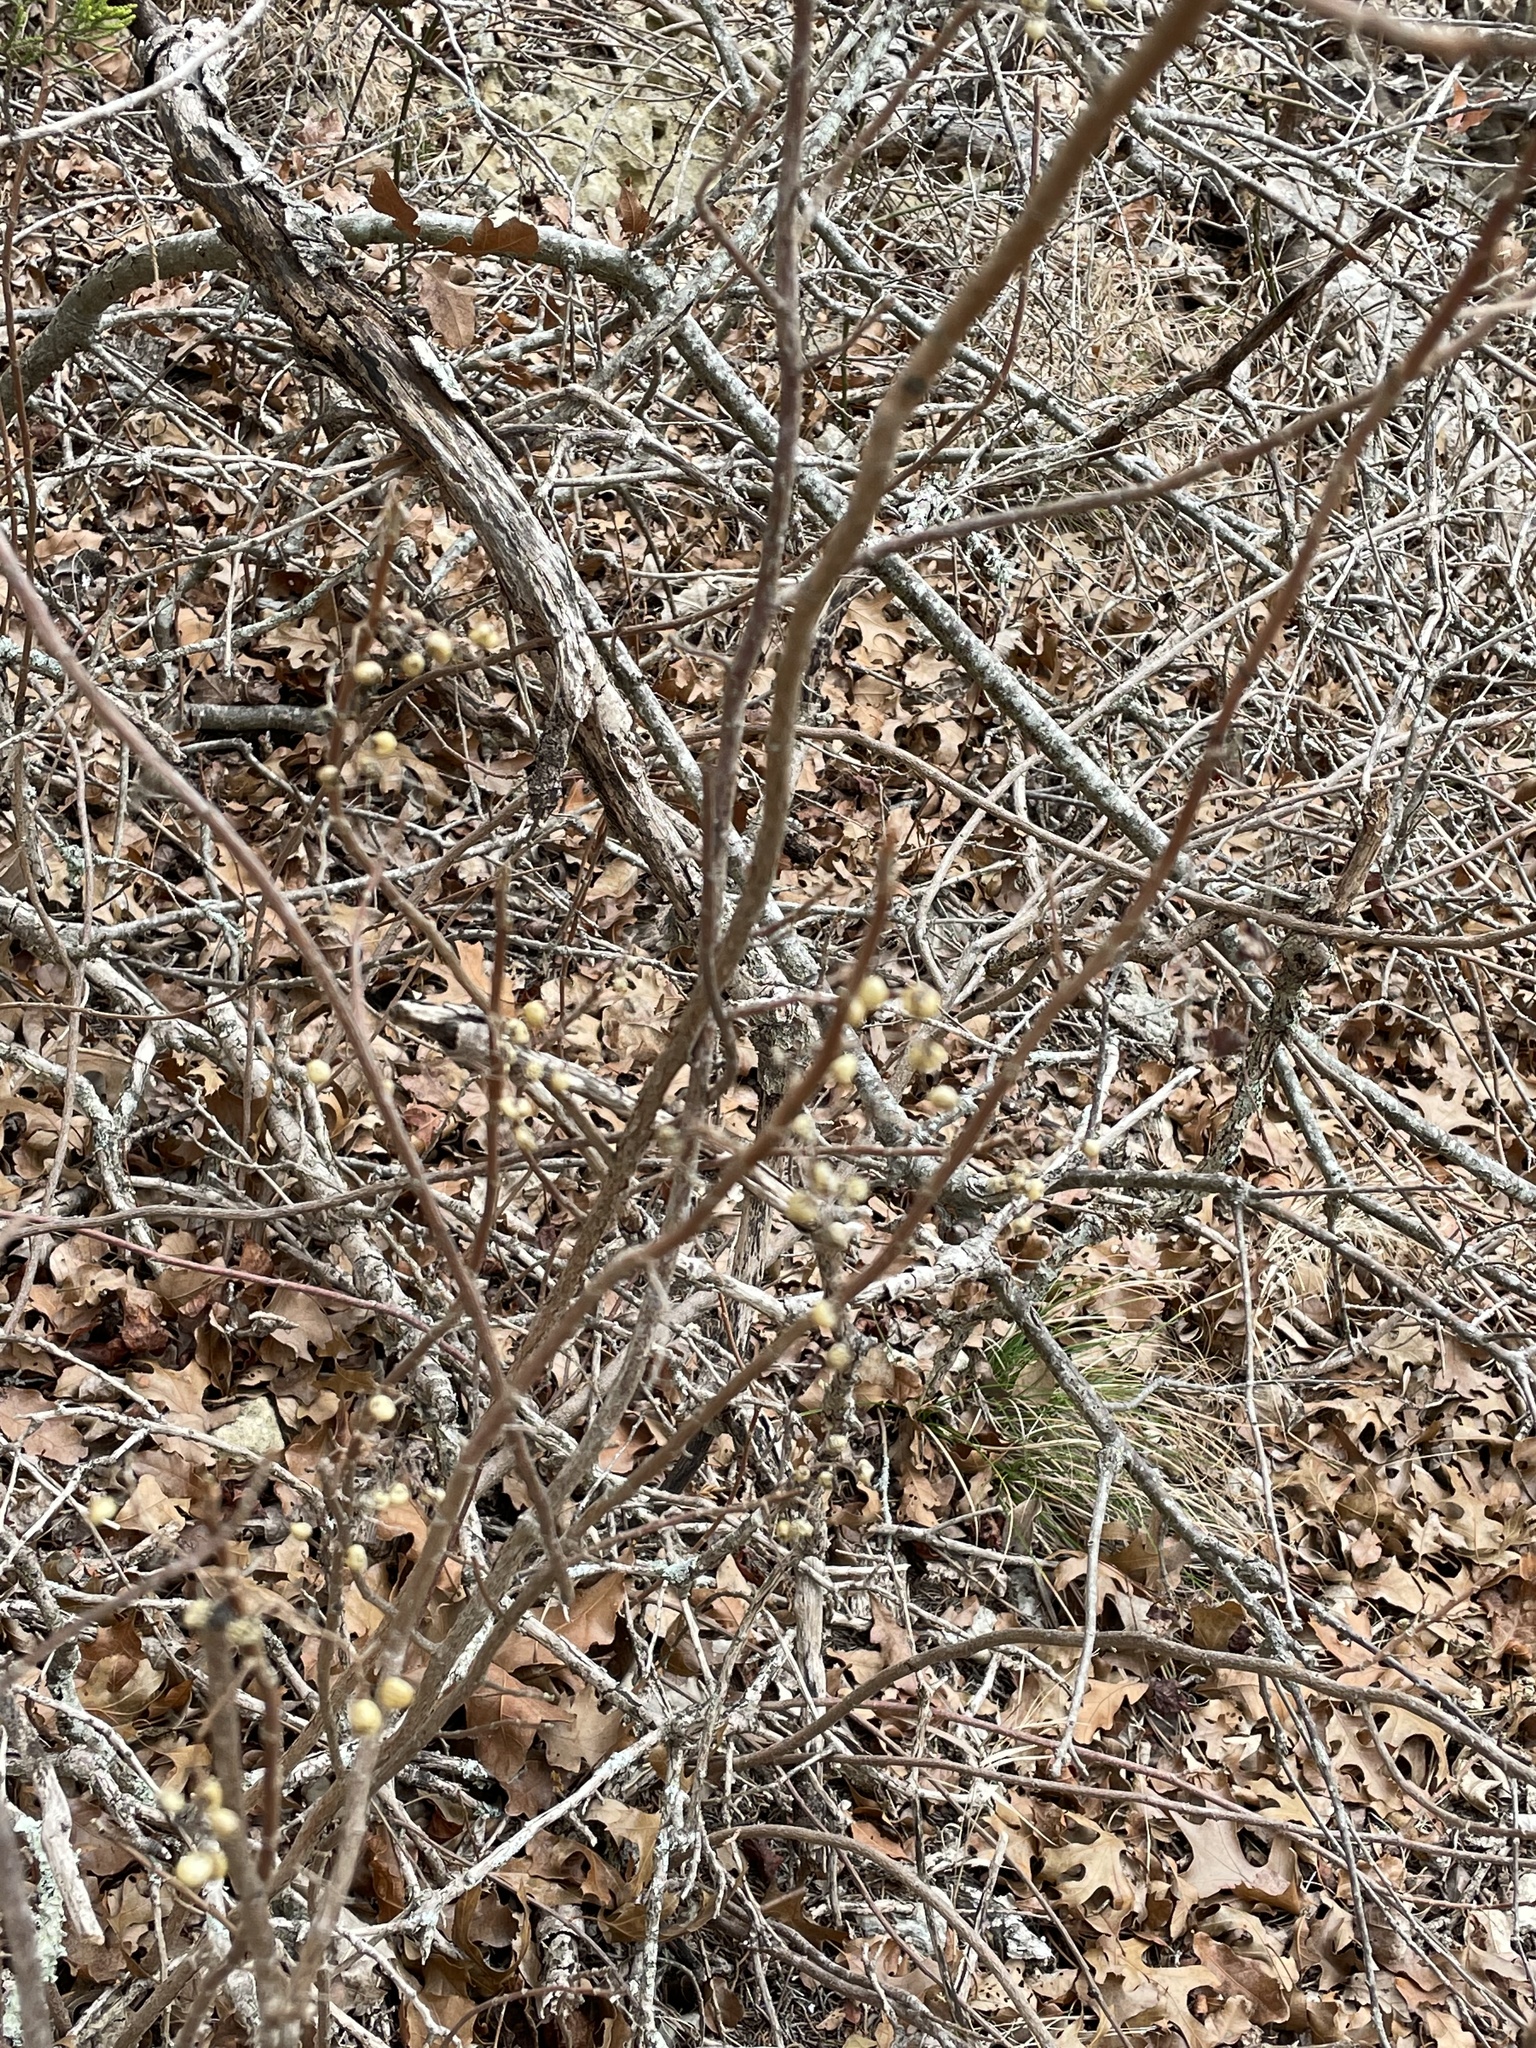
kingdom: Plantae
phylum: Tracheophyta
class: Magnoliopsida
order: Sapindales
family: Anacardiaceae
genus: Toxicodendron
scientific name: Toxicodendron radicans
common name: Poison ivy
